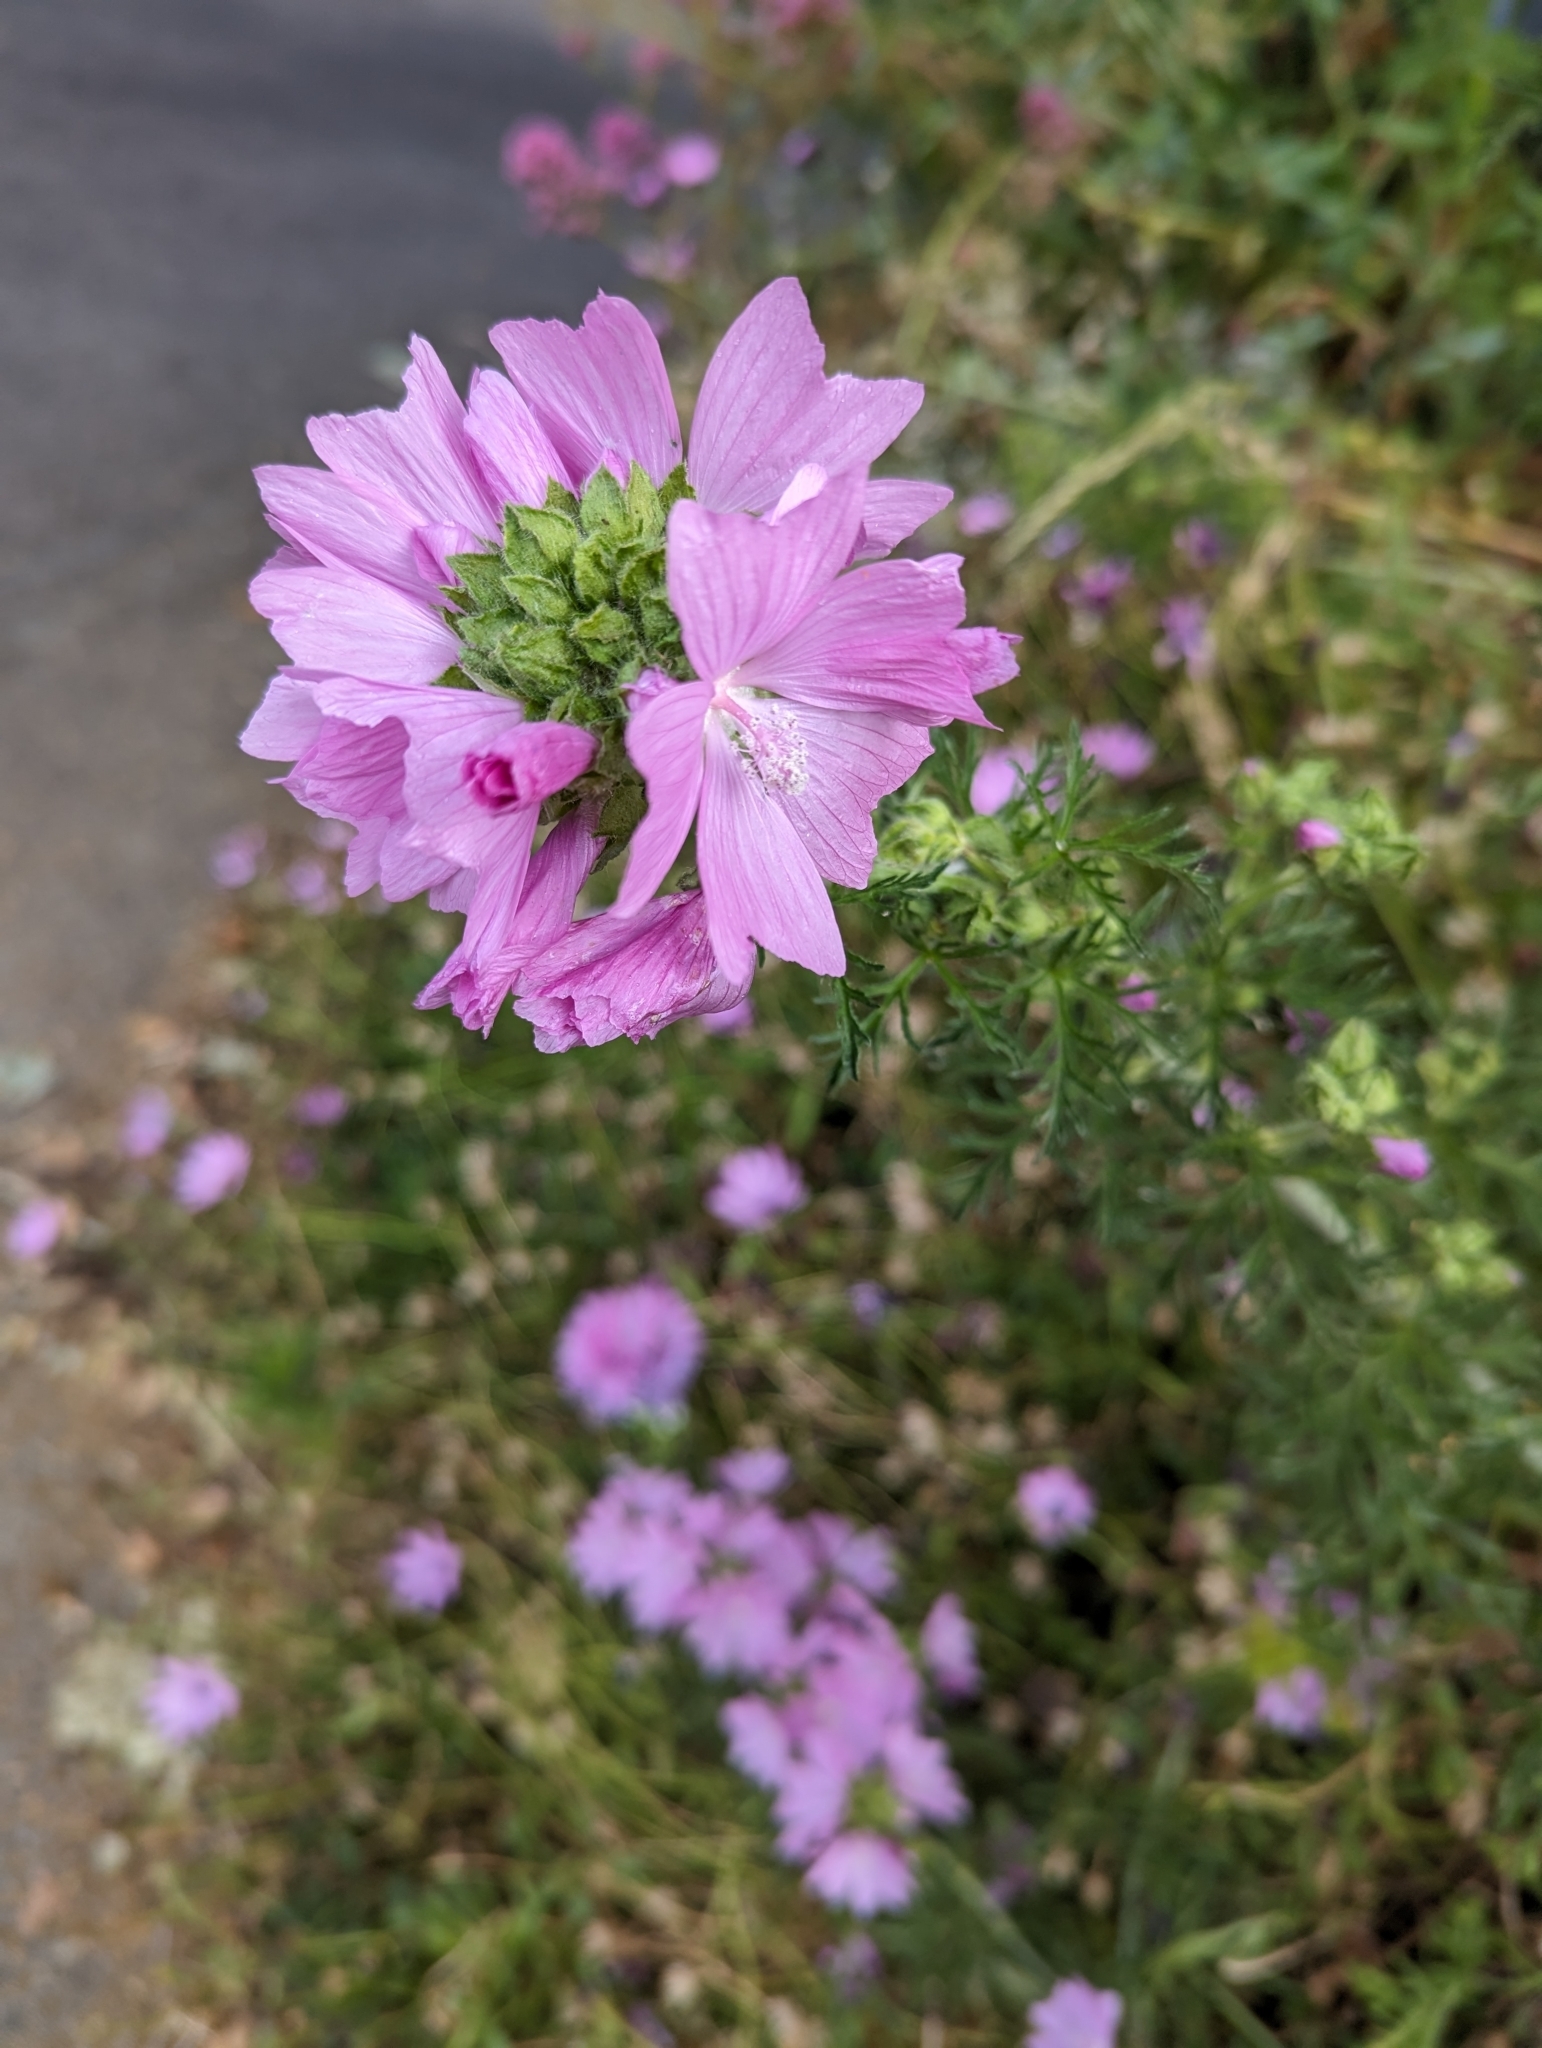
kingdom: Plantae
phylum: Tracheophyta
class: Magnoliopsida
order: Malvales
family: Malvaceae
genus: Malva
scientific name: Malva moschata
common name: Musk mallow
